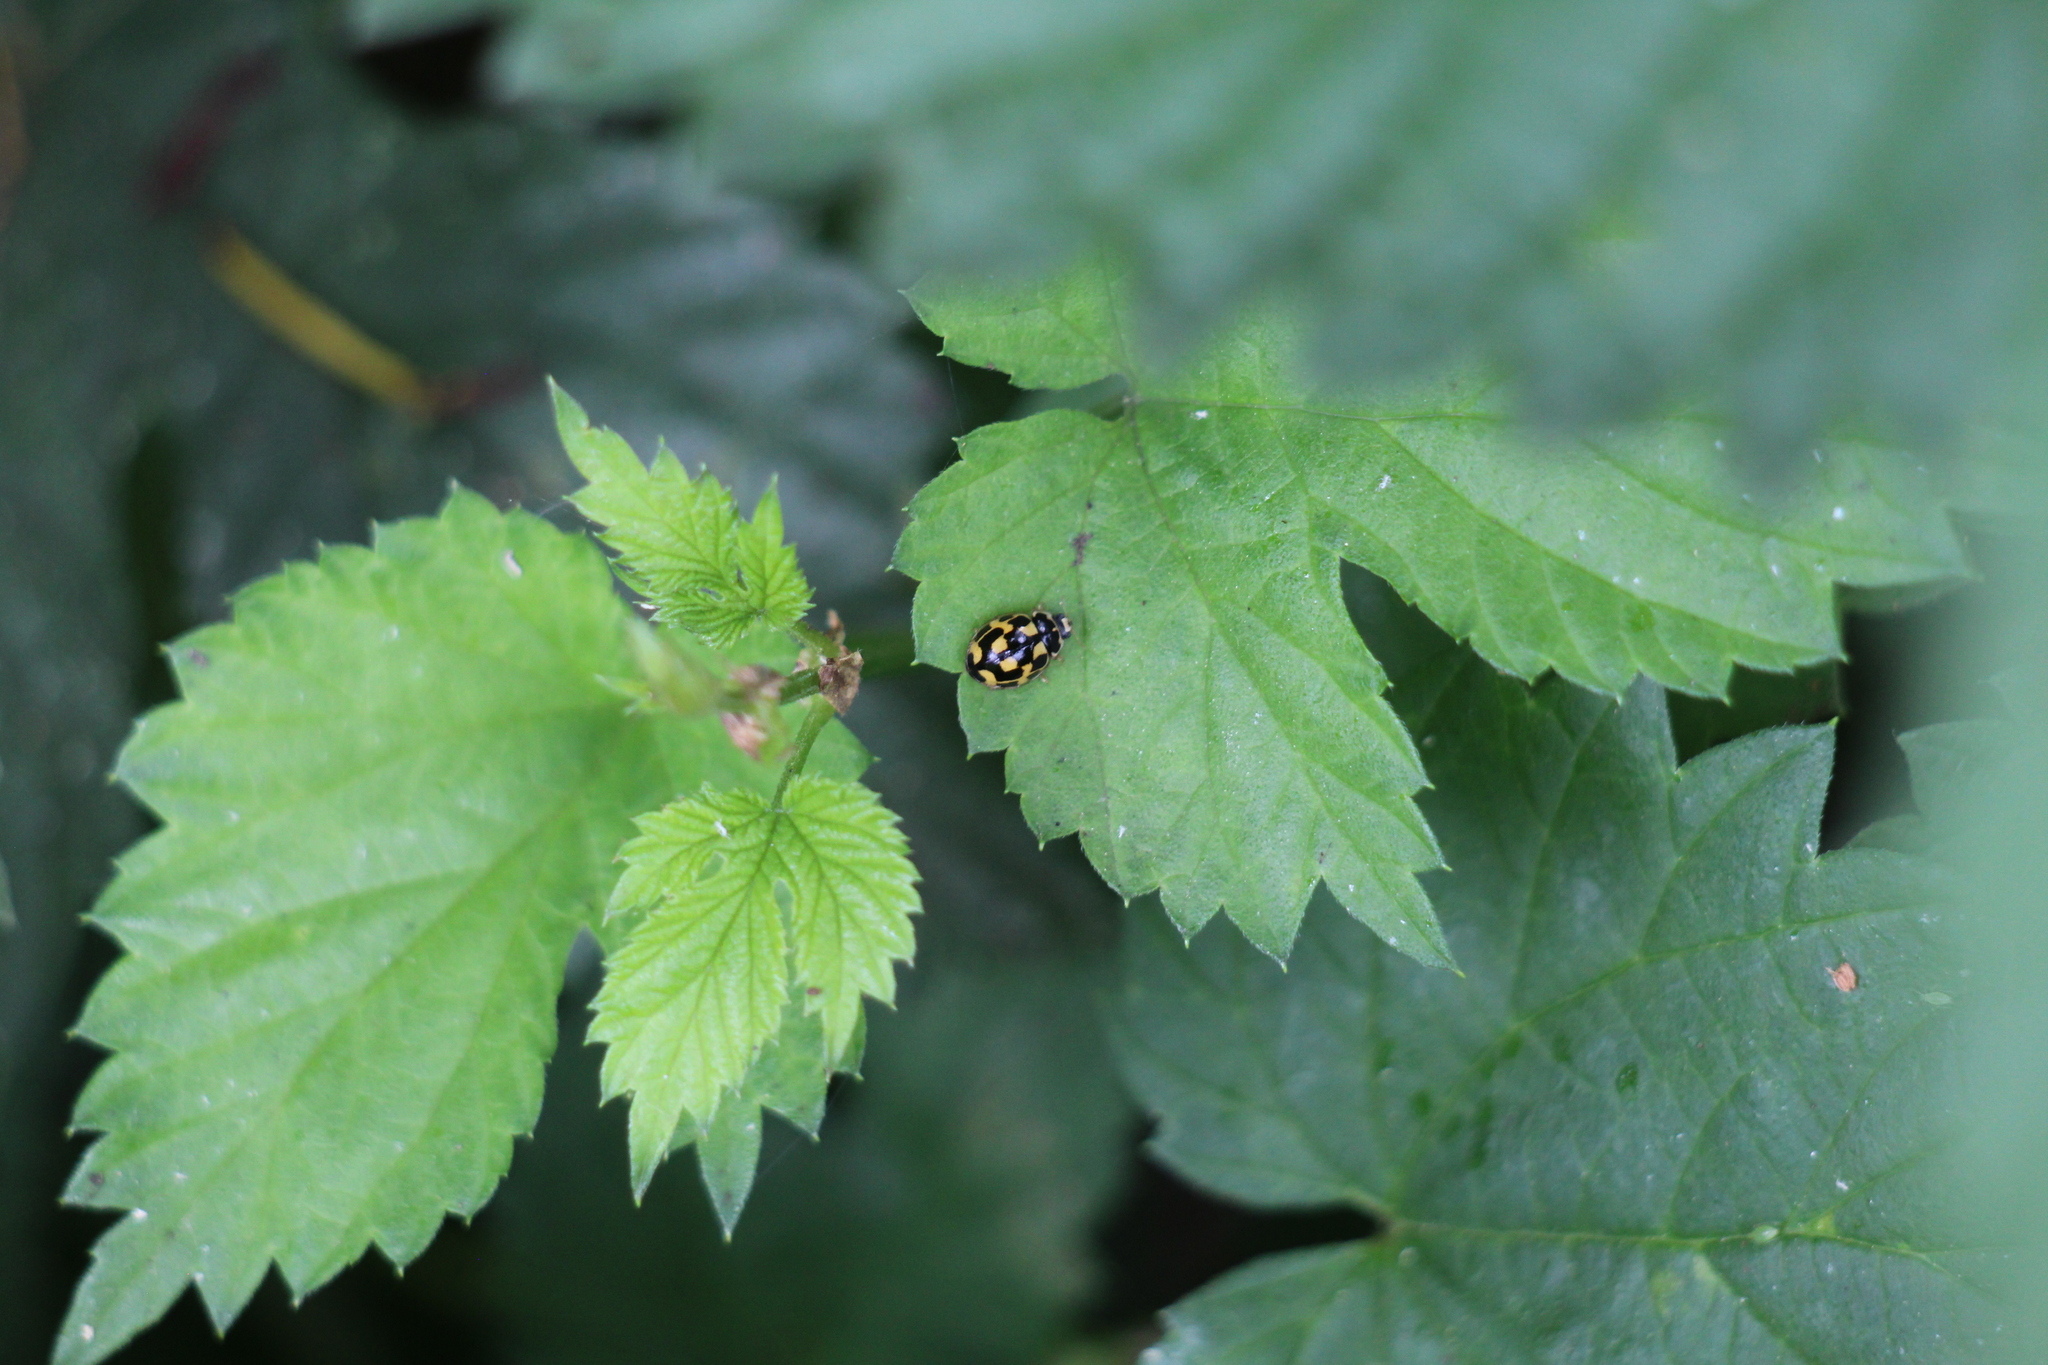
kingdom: Animalia
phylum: Arthropoda
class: Insecta
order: Coleoptera
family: Coccinellidae
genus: Propylaea
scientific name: Propylaea quatuordecimpunctata
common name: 14-spotted ladybird beetle
